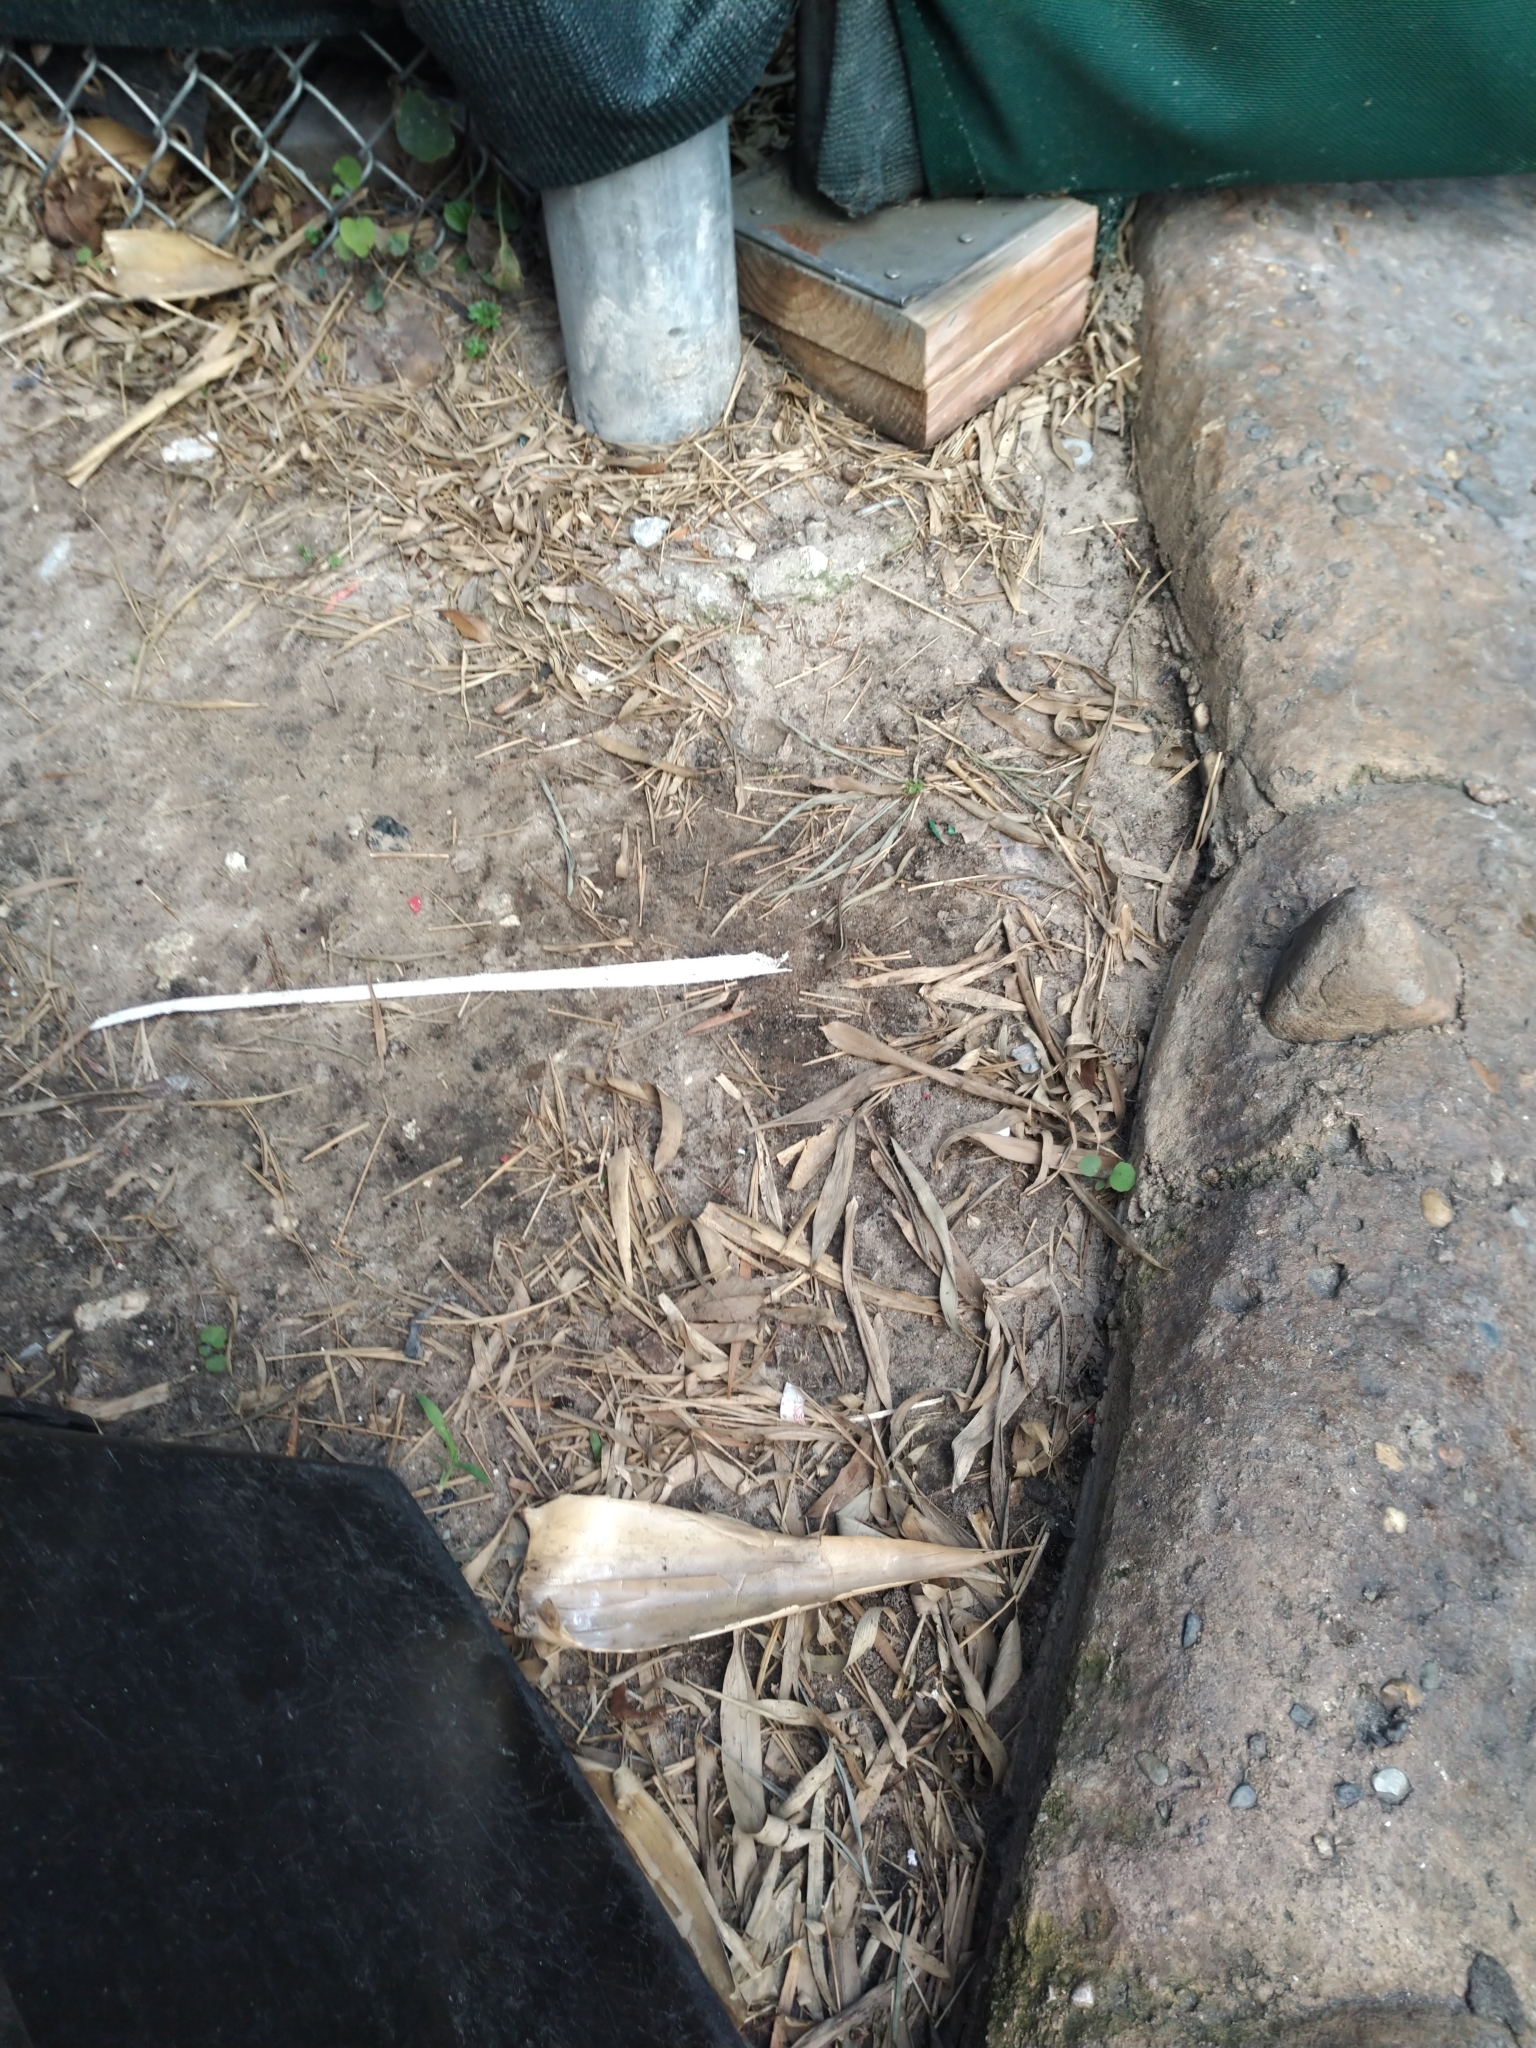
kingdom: Animalia
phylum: Chordata
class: Squamata
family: Dactyloidae
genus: Anolis
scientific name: Anolis sagrei
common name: Brown anole
